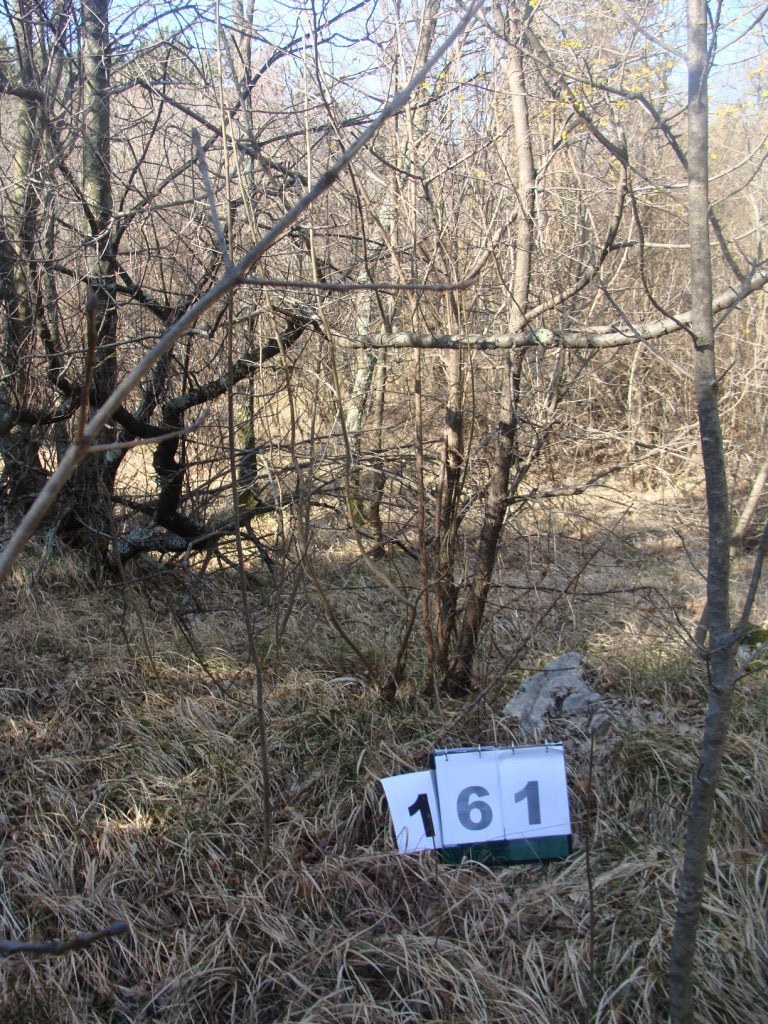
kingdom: Plantae
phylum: Tracheophyta
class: Magnoliopsida
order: Cornales
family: Cornaceae
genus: Cornus
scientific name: Cornus mas
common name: Cornelian-cherry
